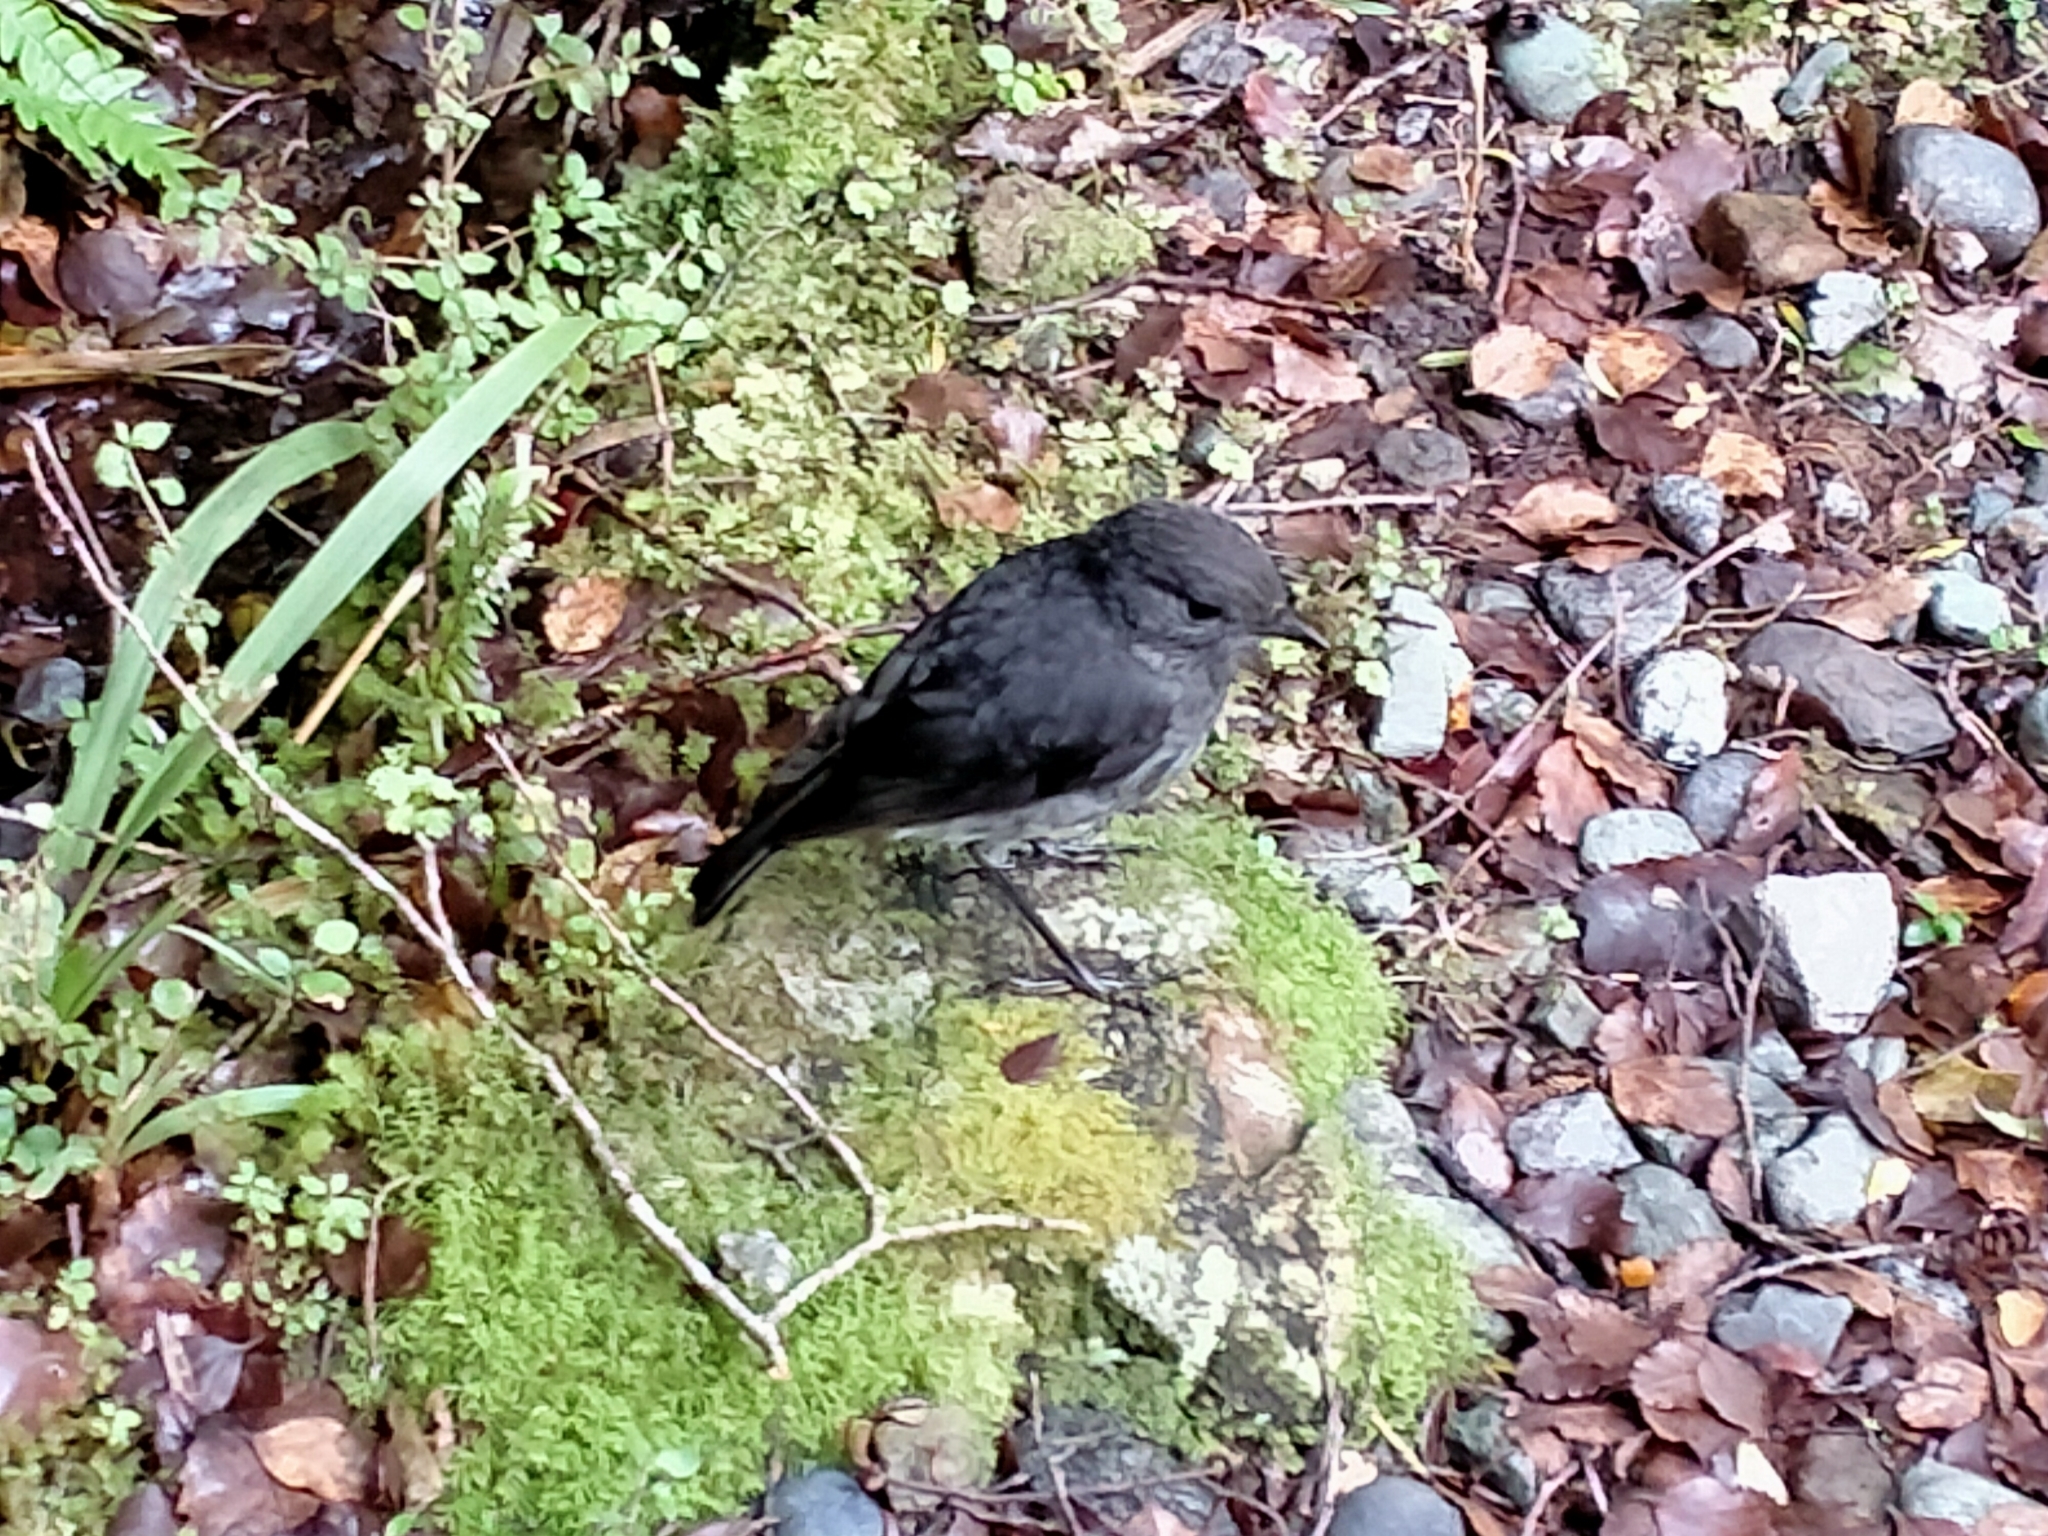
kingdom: Animalia
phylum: Chordata
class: Aves
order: Passeriformes
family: Petroicidae
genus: Petroica
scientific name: Petroica australis
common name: New zealand robin
